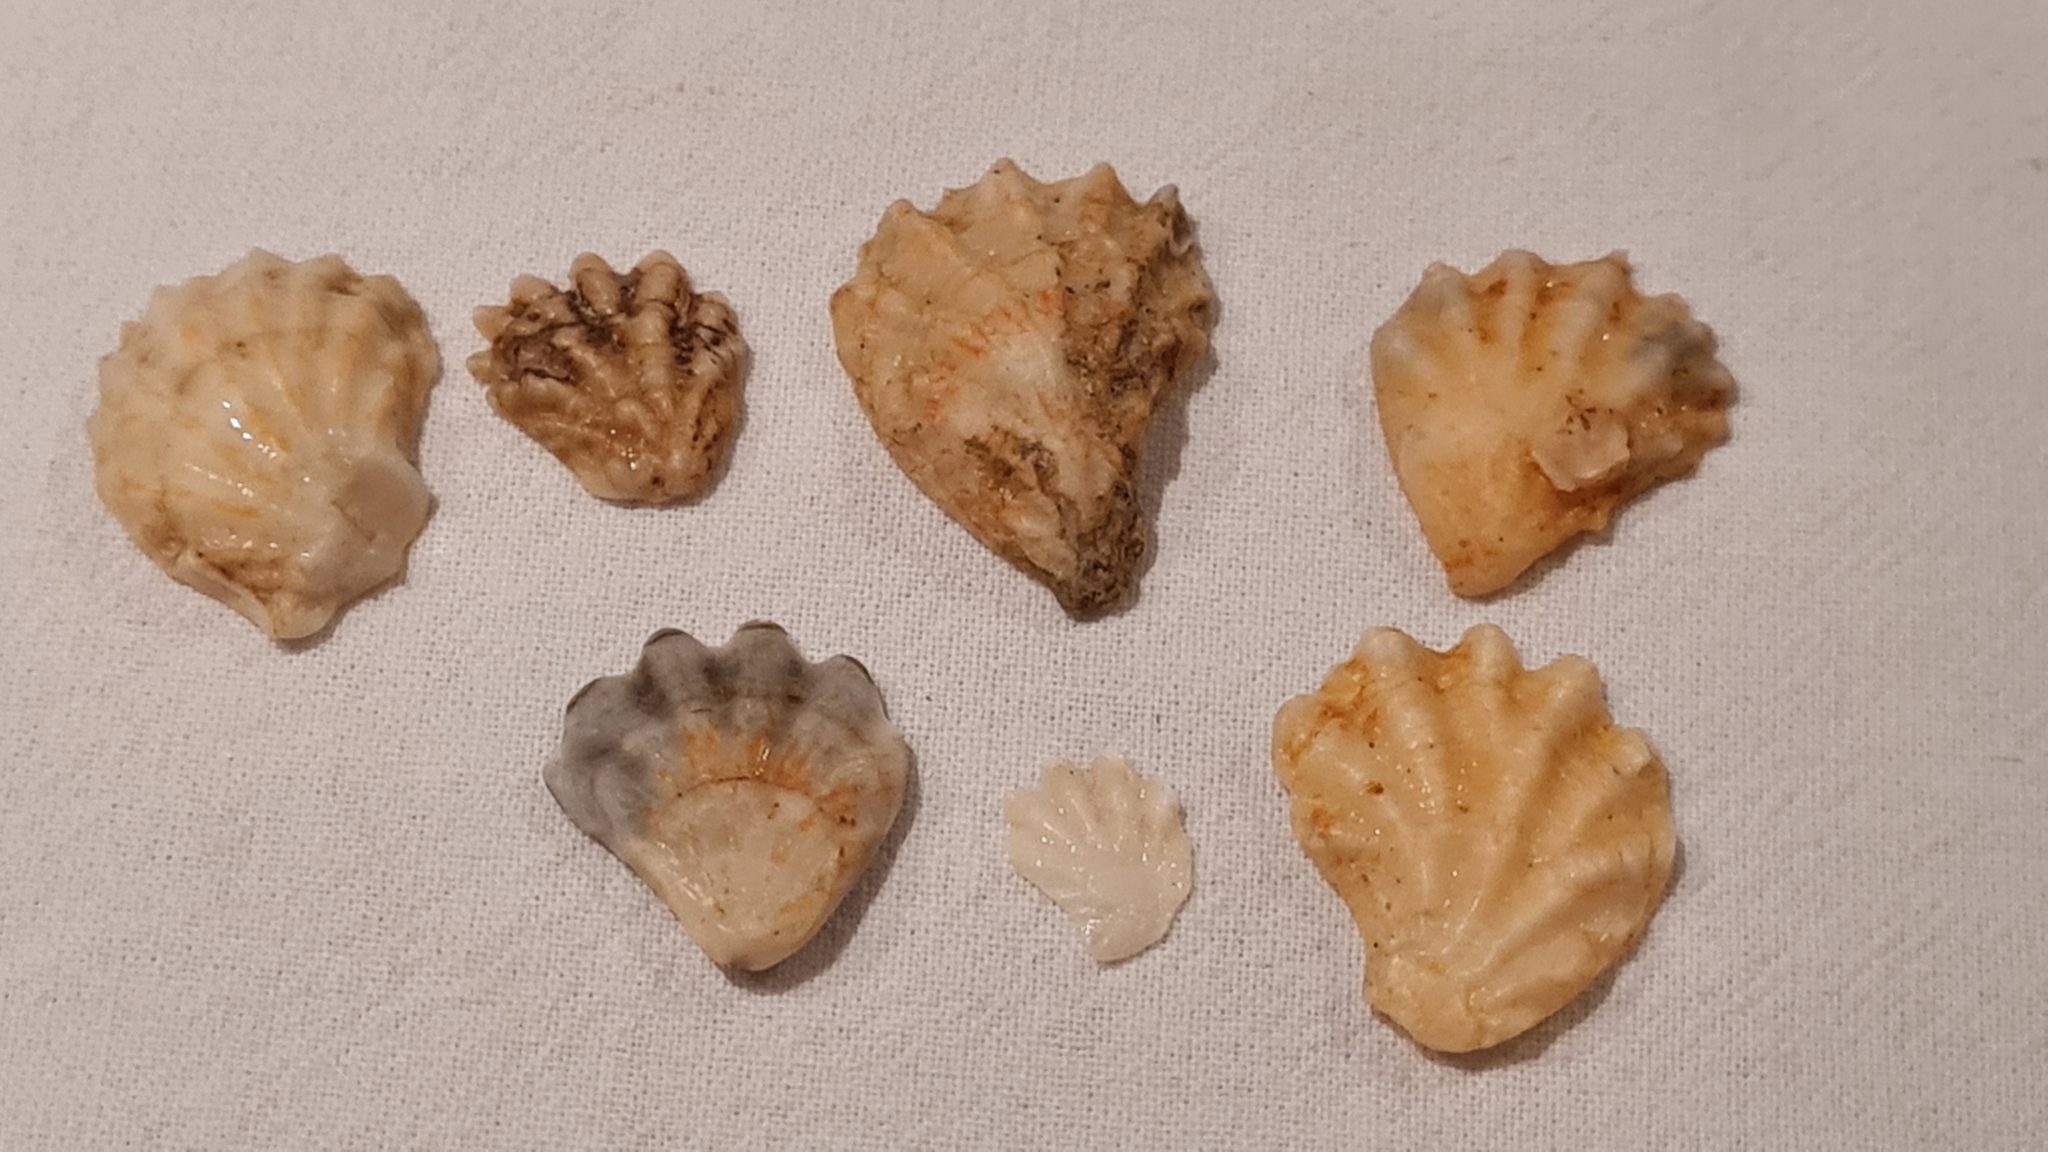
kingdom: Animalia
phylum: Mollusca
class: Bivalvia
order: Pectinida
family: Plicatulidae
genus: Plicatula
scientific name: Plicatula gibbosa
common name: Atlantic kitten's paw
